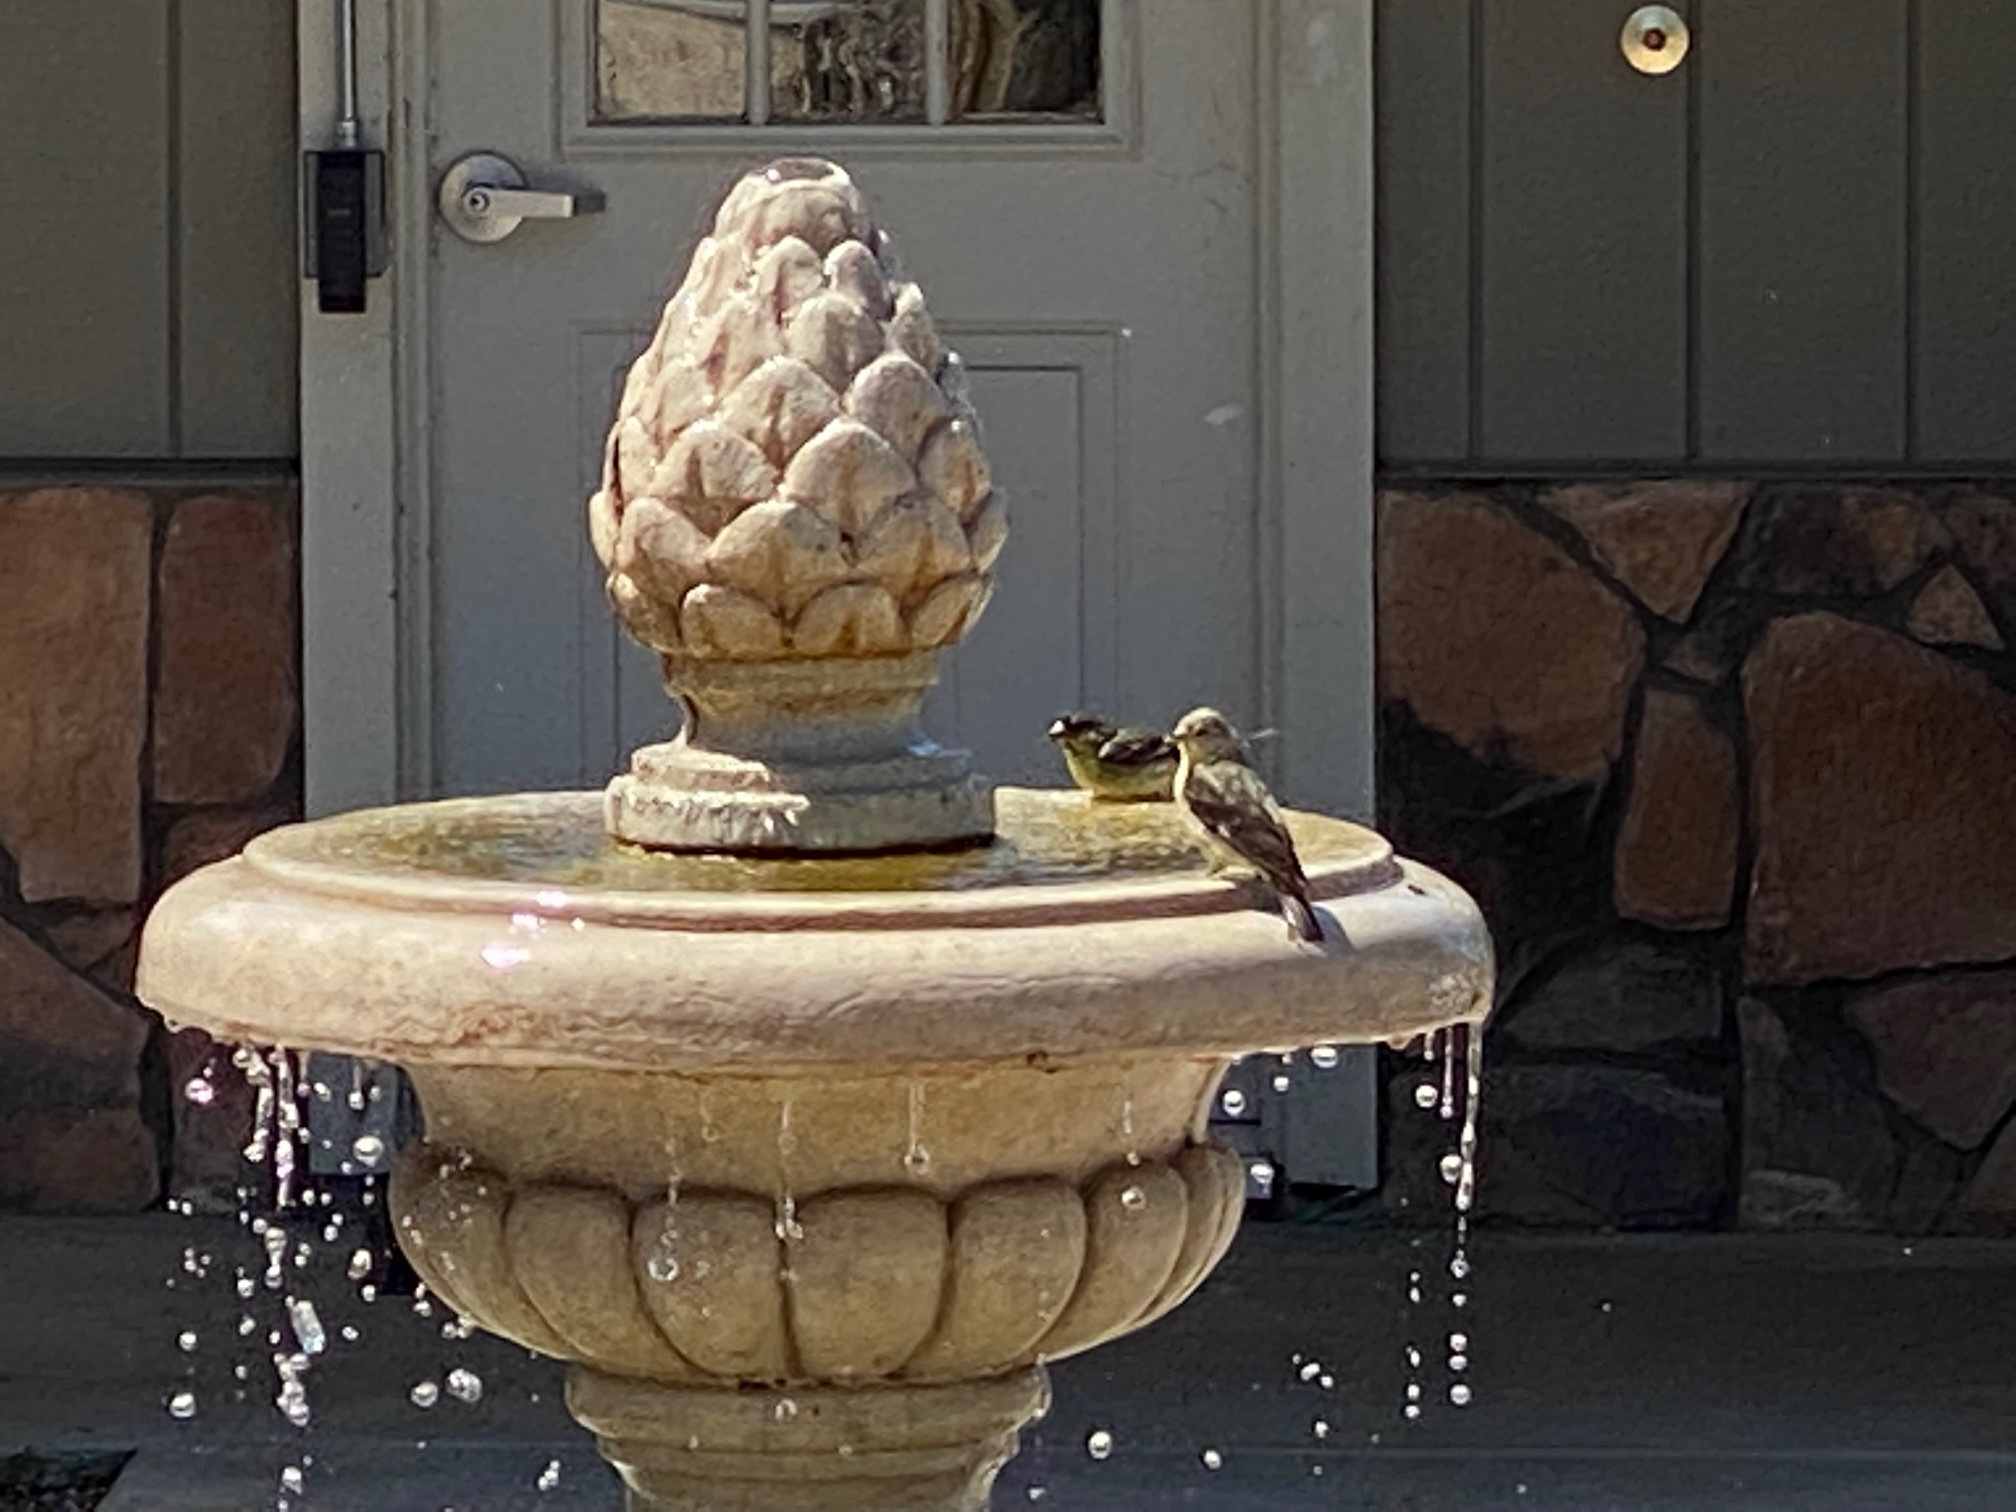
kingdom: Animalia
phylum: Chordata
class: Aves
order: Passeriformes
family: Fringillidae
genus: Spinus
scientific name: Spinus psaltria
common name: Lesser goldfinch
